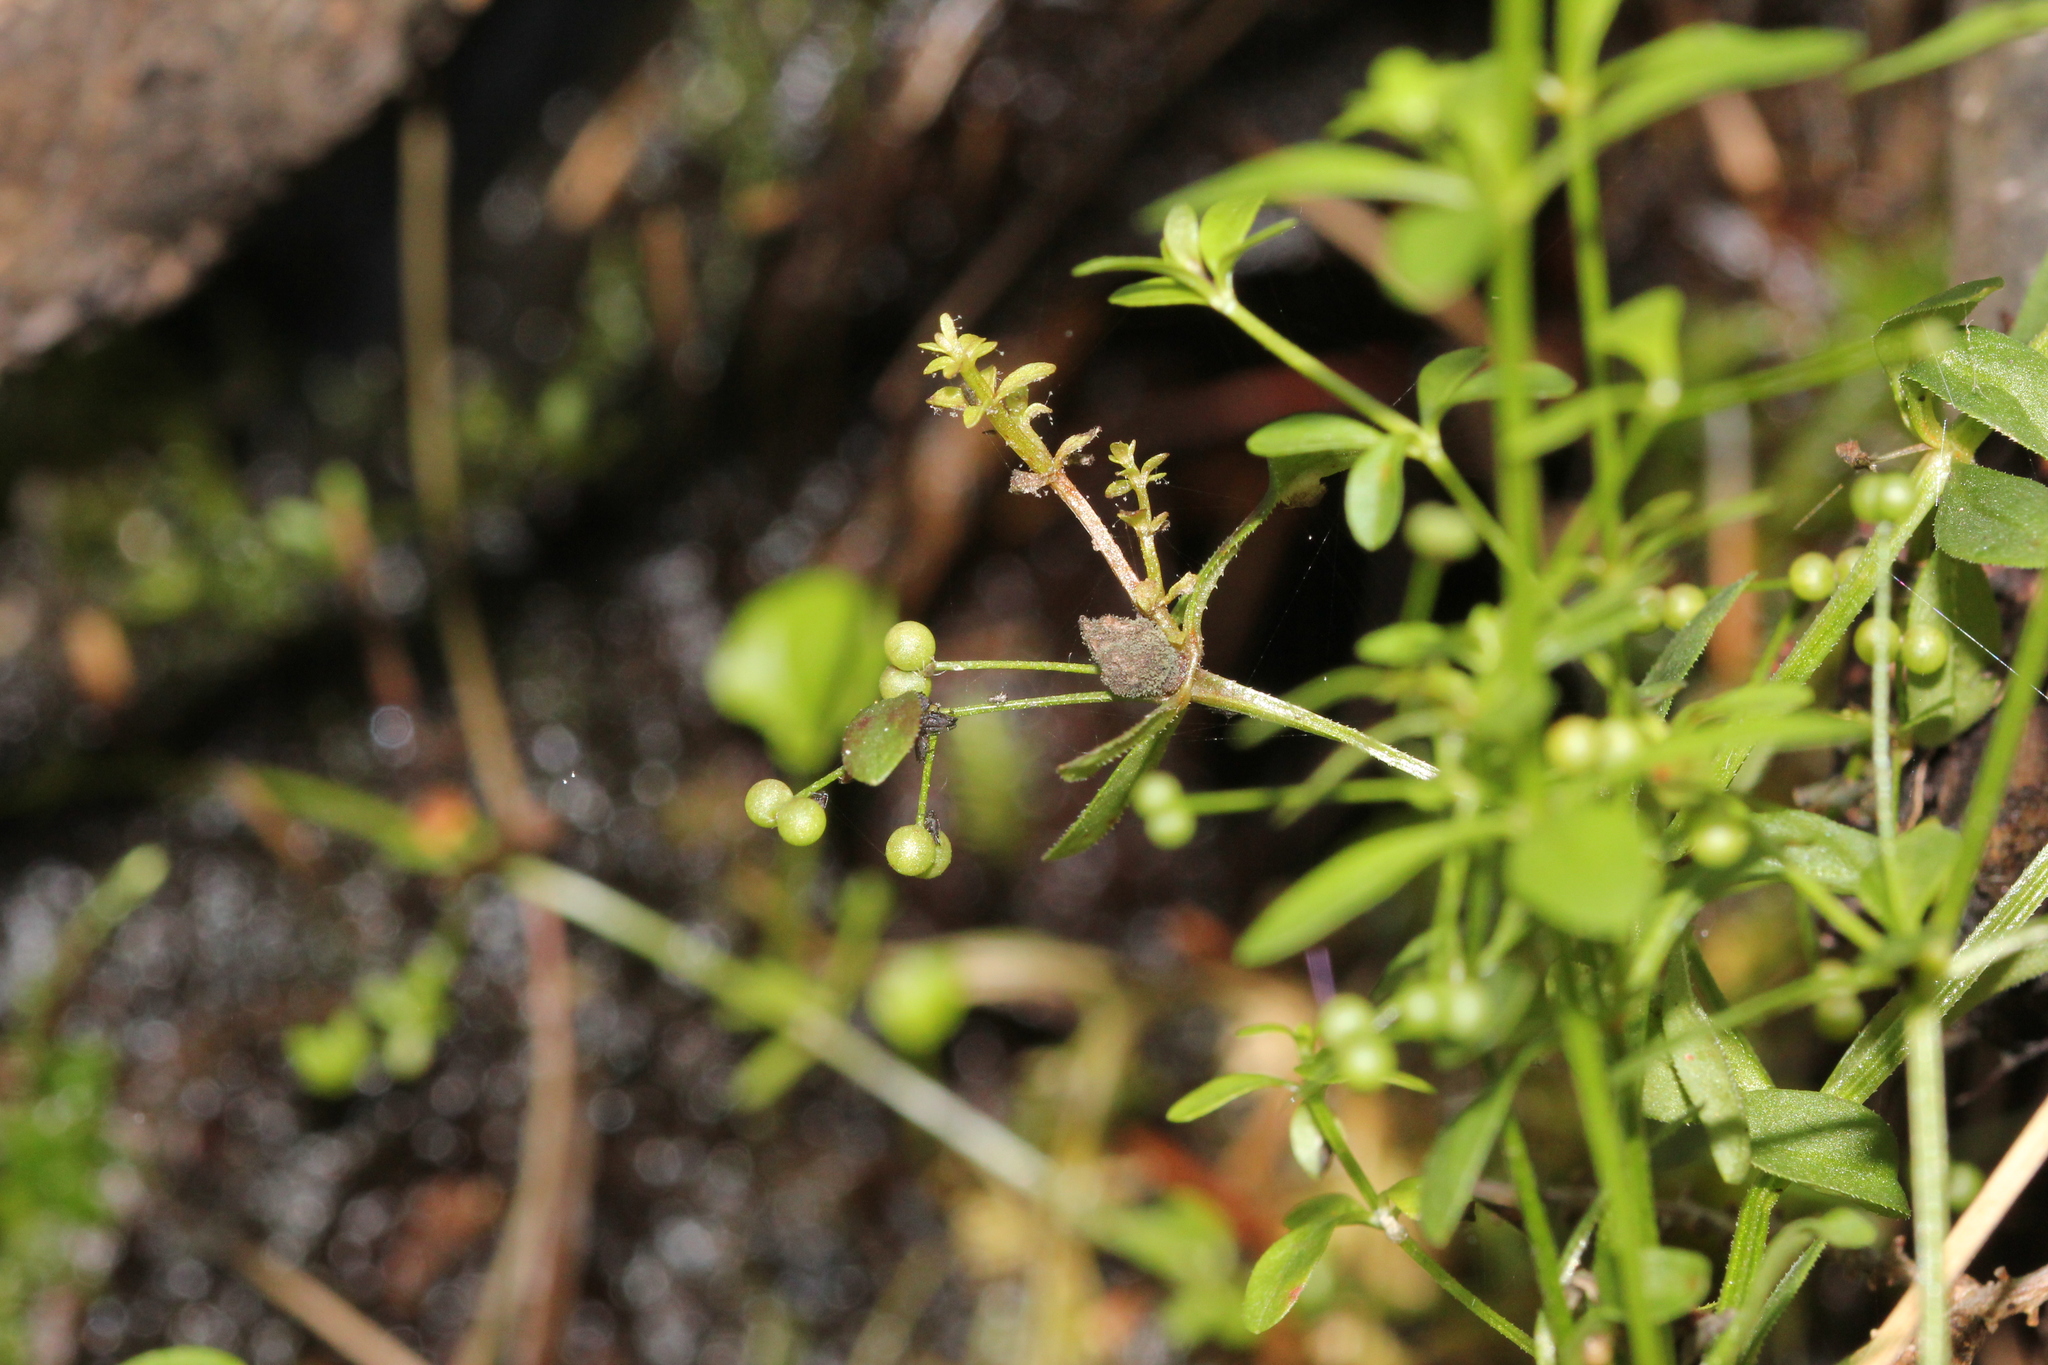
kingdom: Plantae
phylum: Tracheophyta
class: Magnoliopsida
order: Gentianales
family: Rubiaceae
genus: Galium
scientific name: Galium tinctorium
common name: Bedstraw
